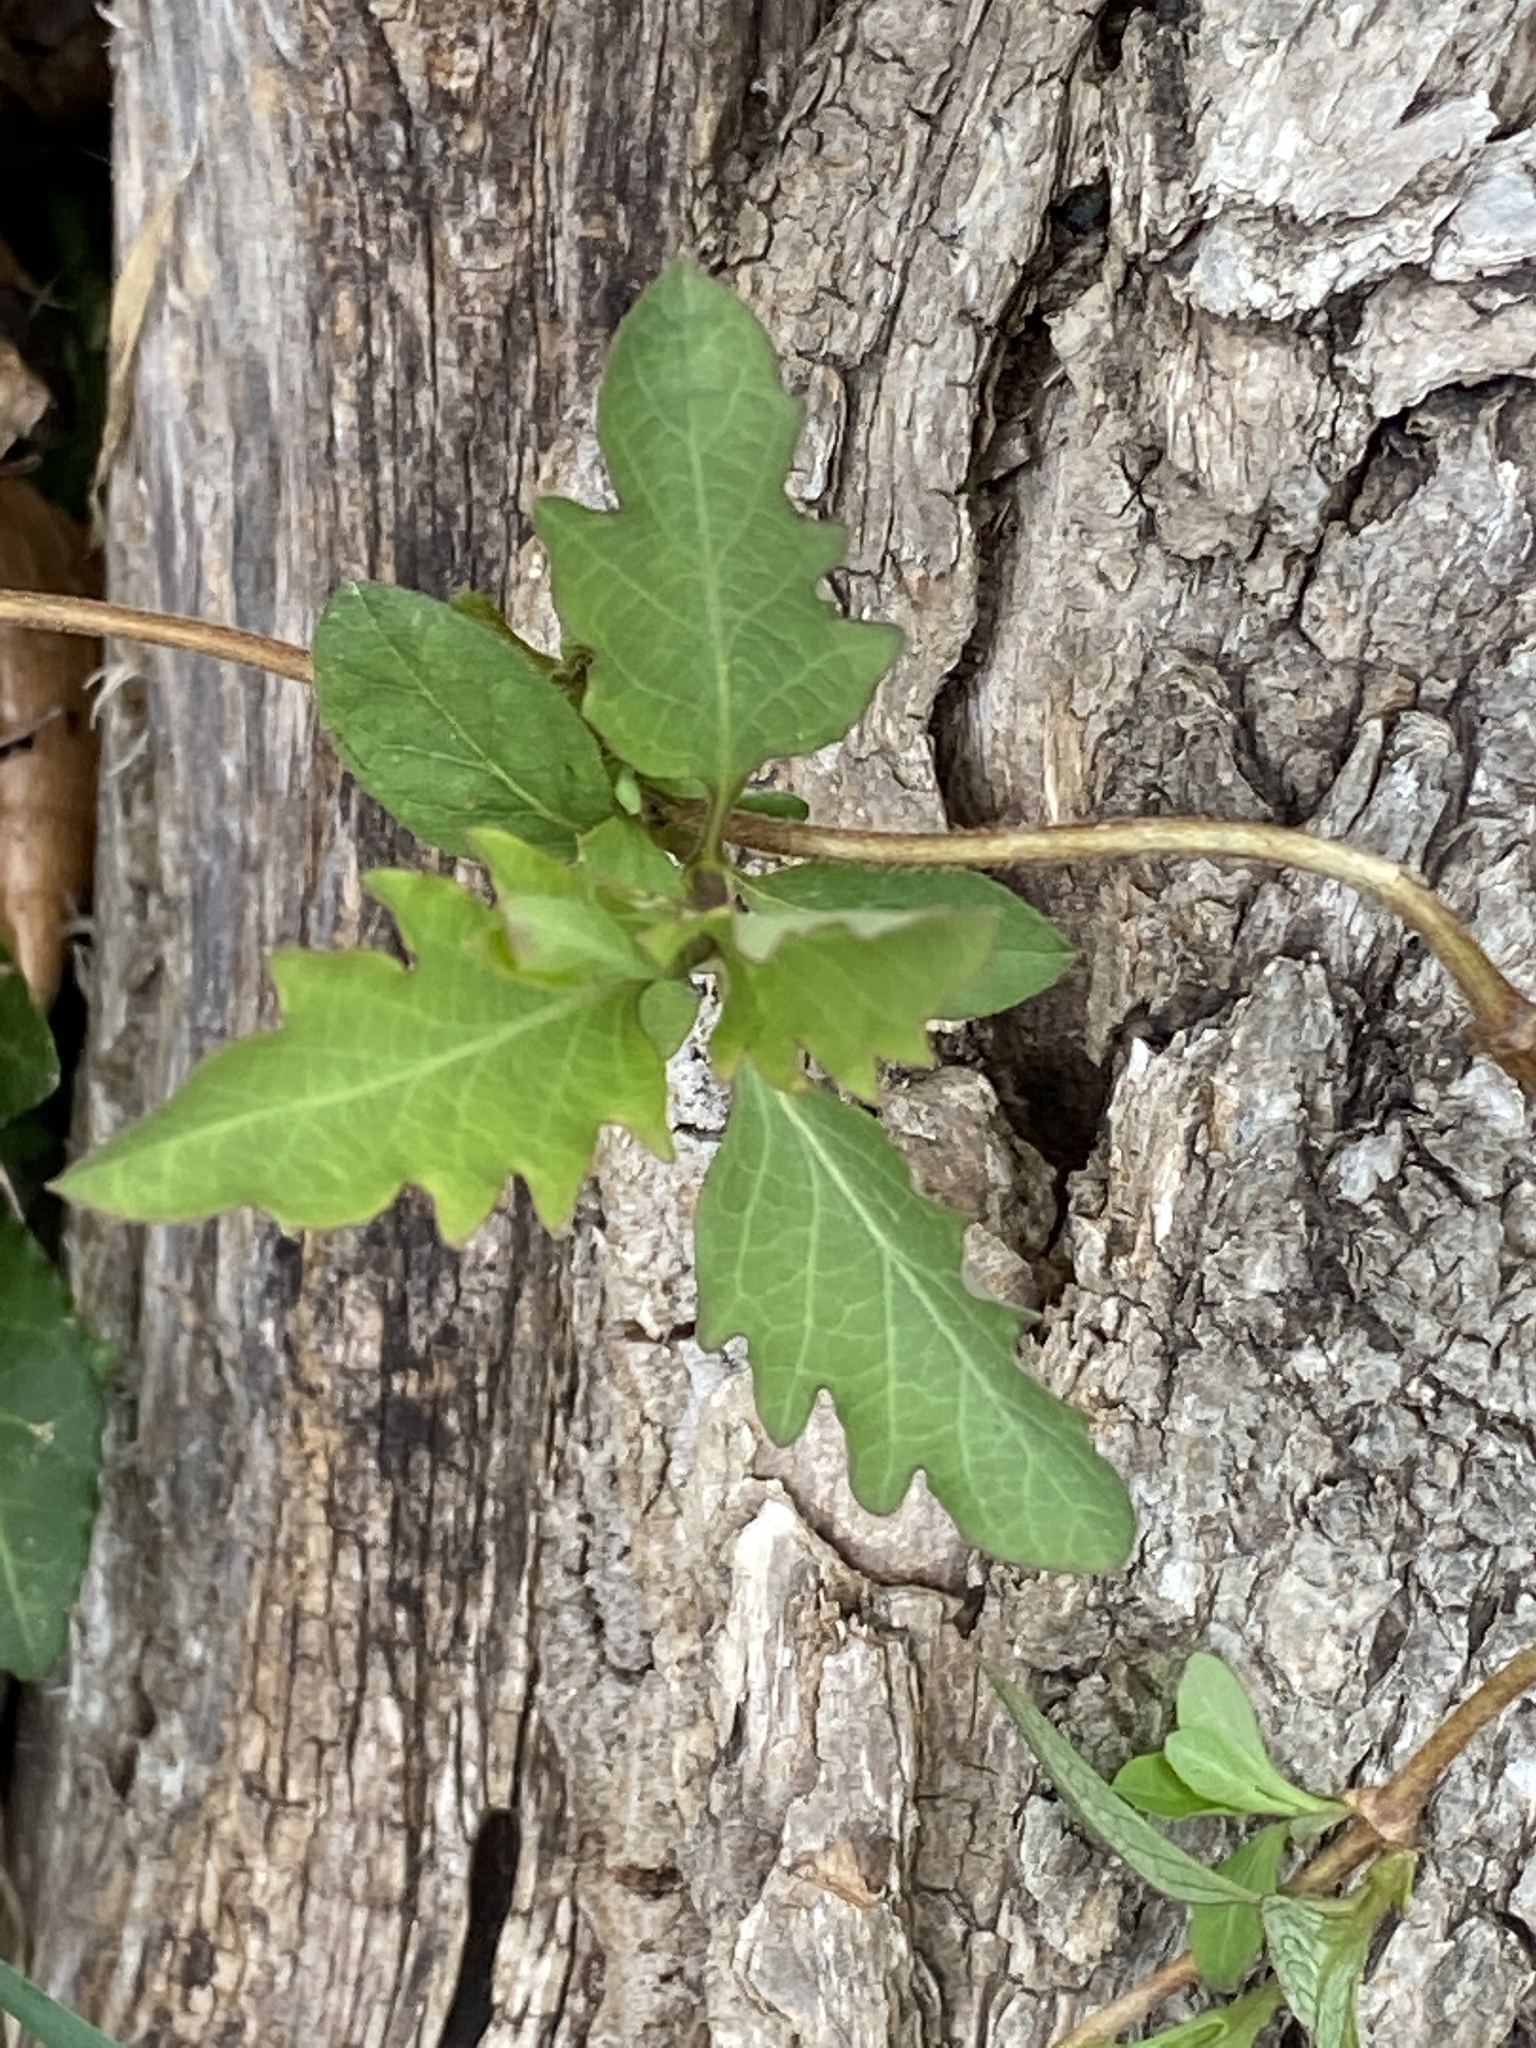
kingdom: Plantae
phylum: Tracheophyta
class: Magnoliopsida
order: Dipsacales
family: Caprifoliaceae
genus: Lonicera
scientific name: Lonicera japonica
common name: Japanese honeysuckle
